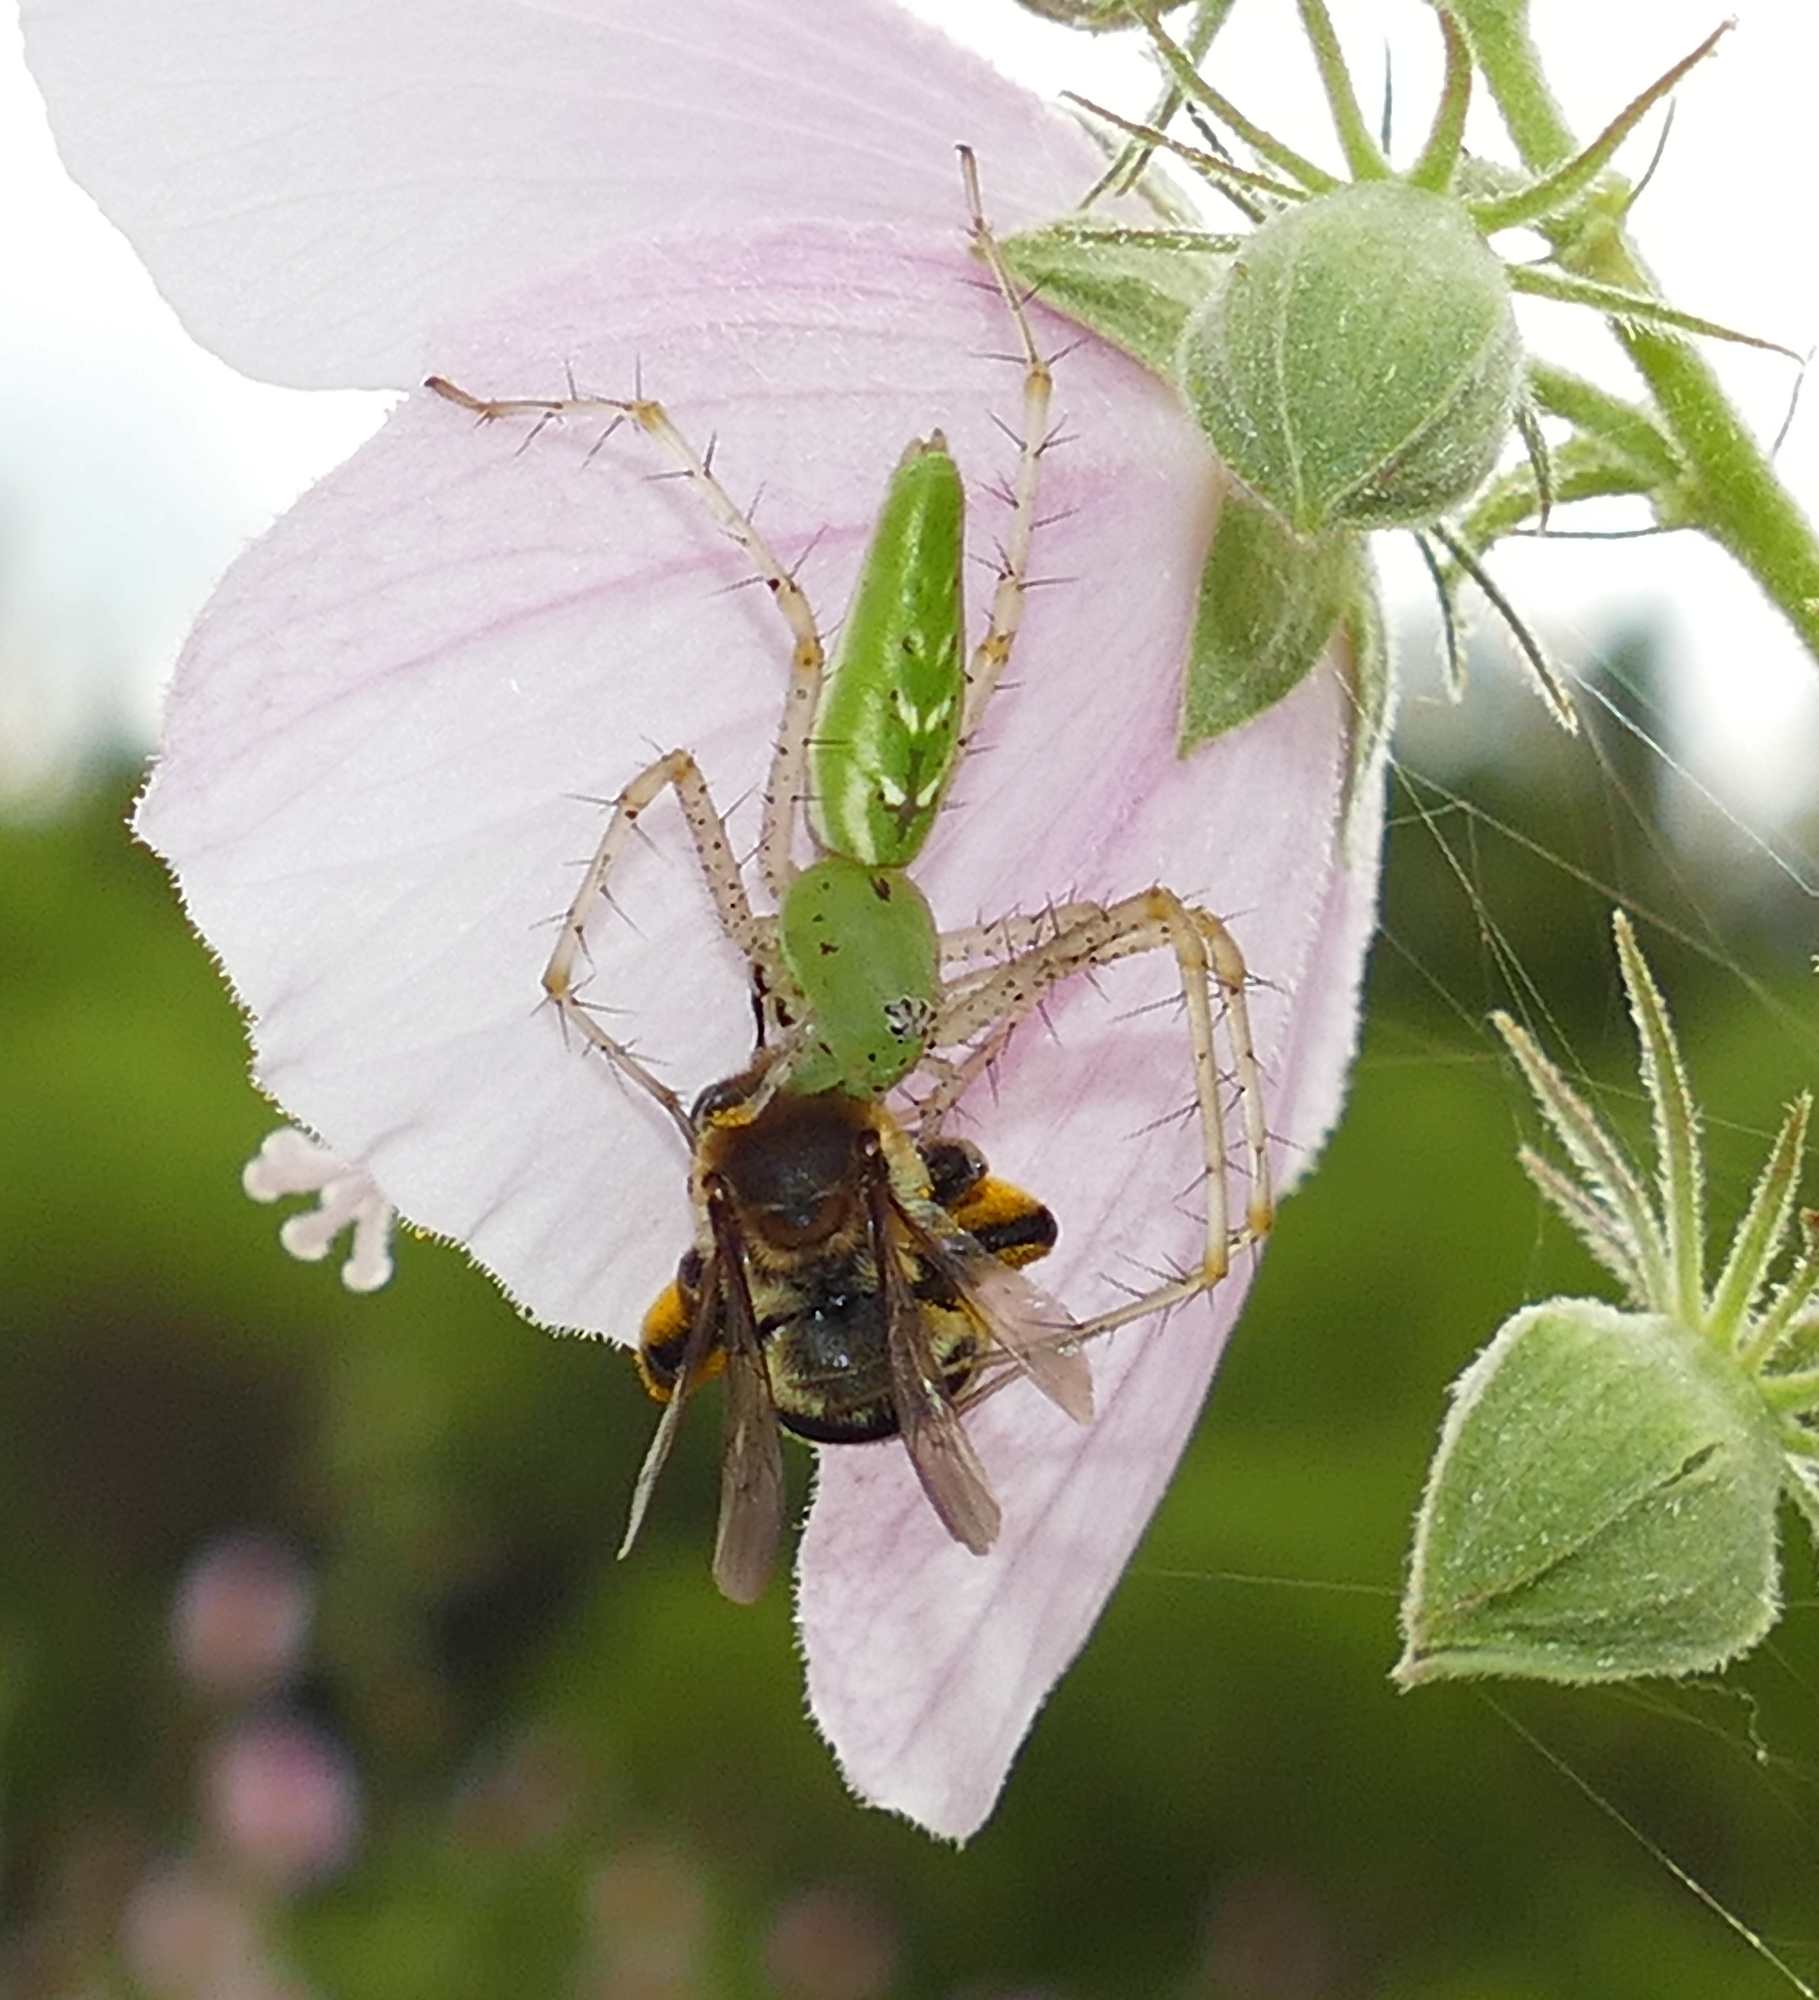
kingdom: Animalia
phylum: Arthropoda
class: Arachnida
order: Araneae
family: Oxyopidae
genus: Peucetia
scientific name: Peucetia viridans
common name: Lynx spiders
